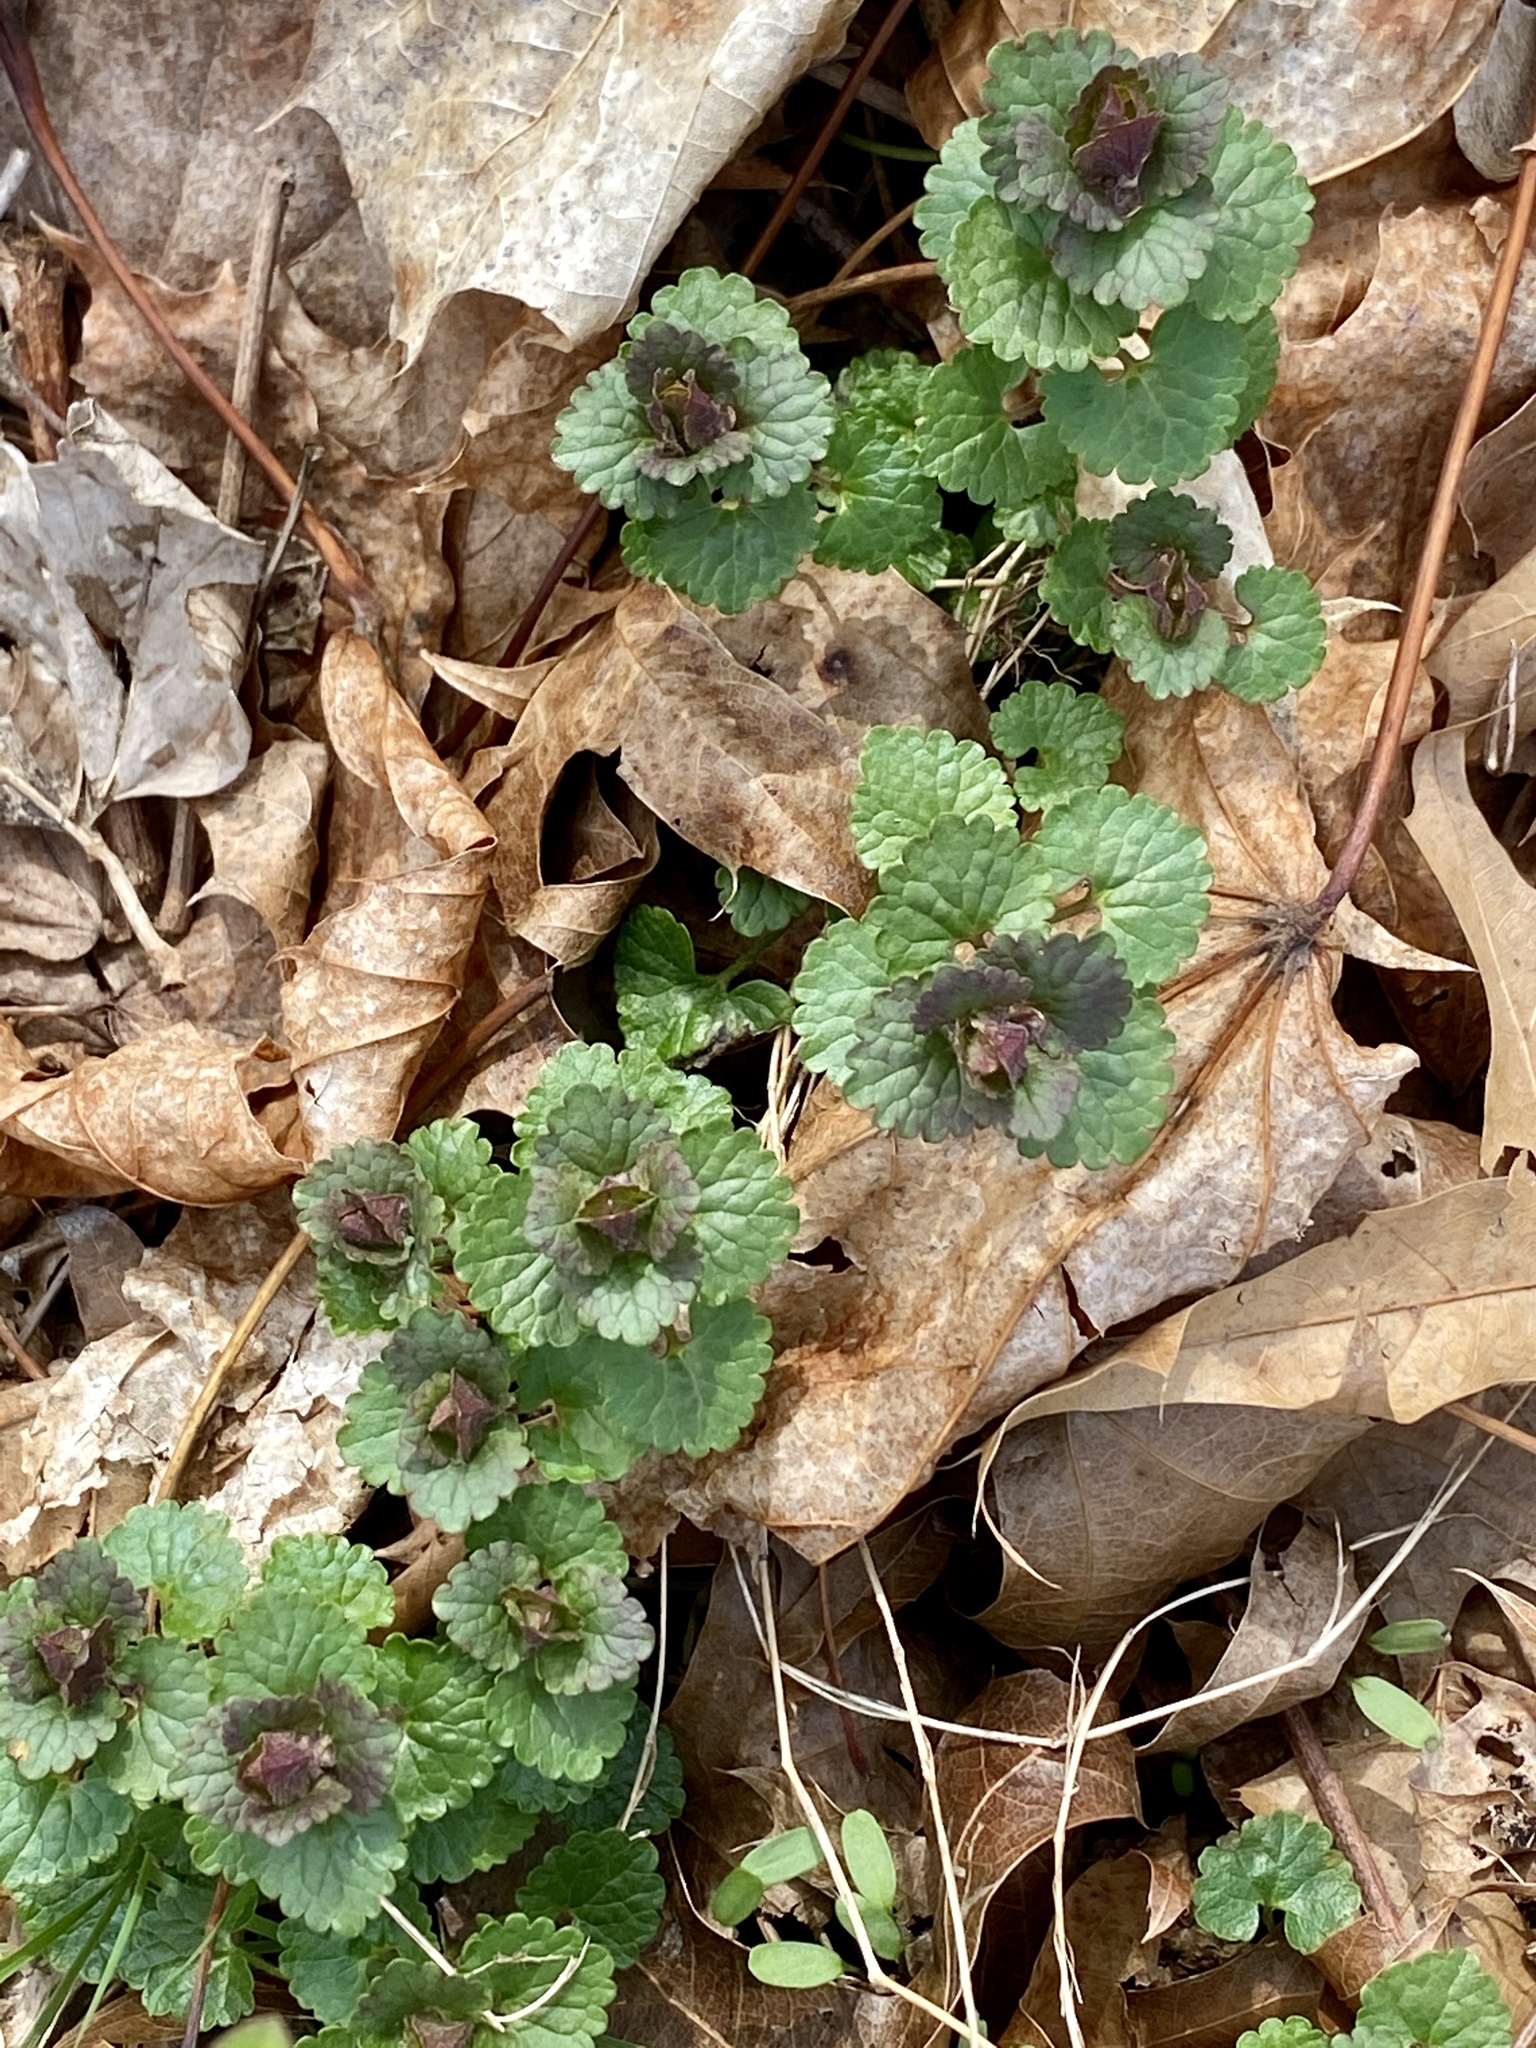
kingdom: Plantae
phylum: Tracheophyta
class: Magnoliopsida
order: Lamiales
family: Lamiaceae
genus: Glechoma
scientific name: Glechoma hederacea
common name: Ground ivy
